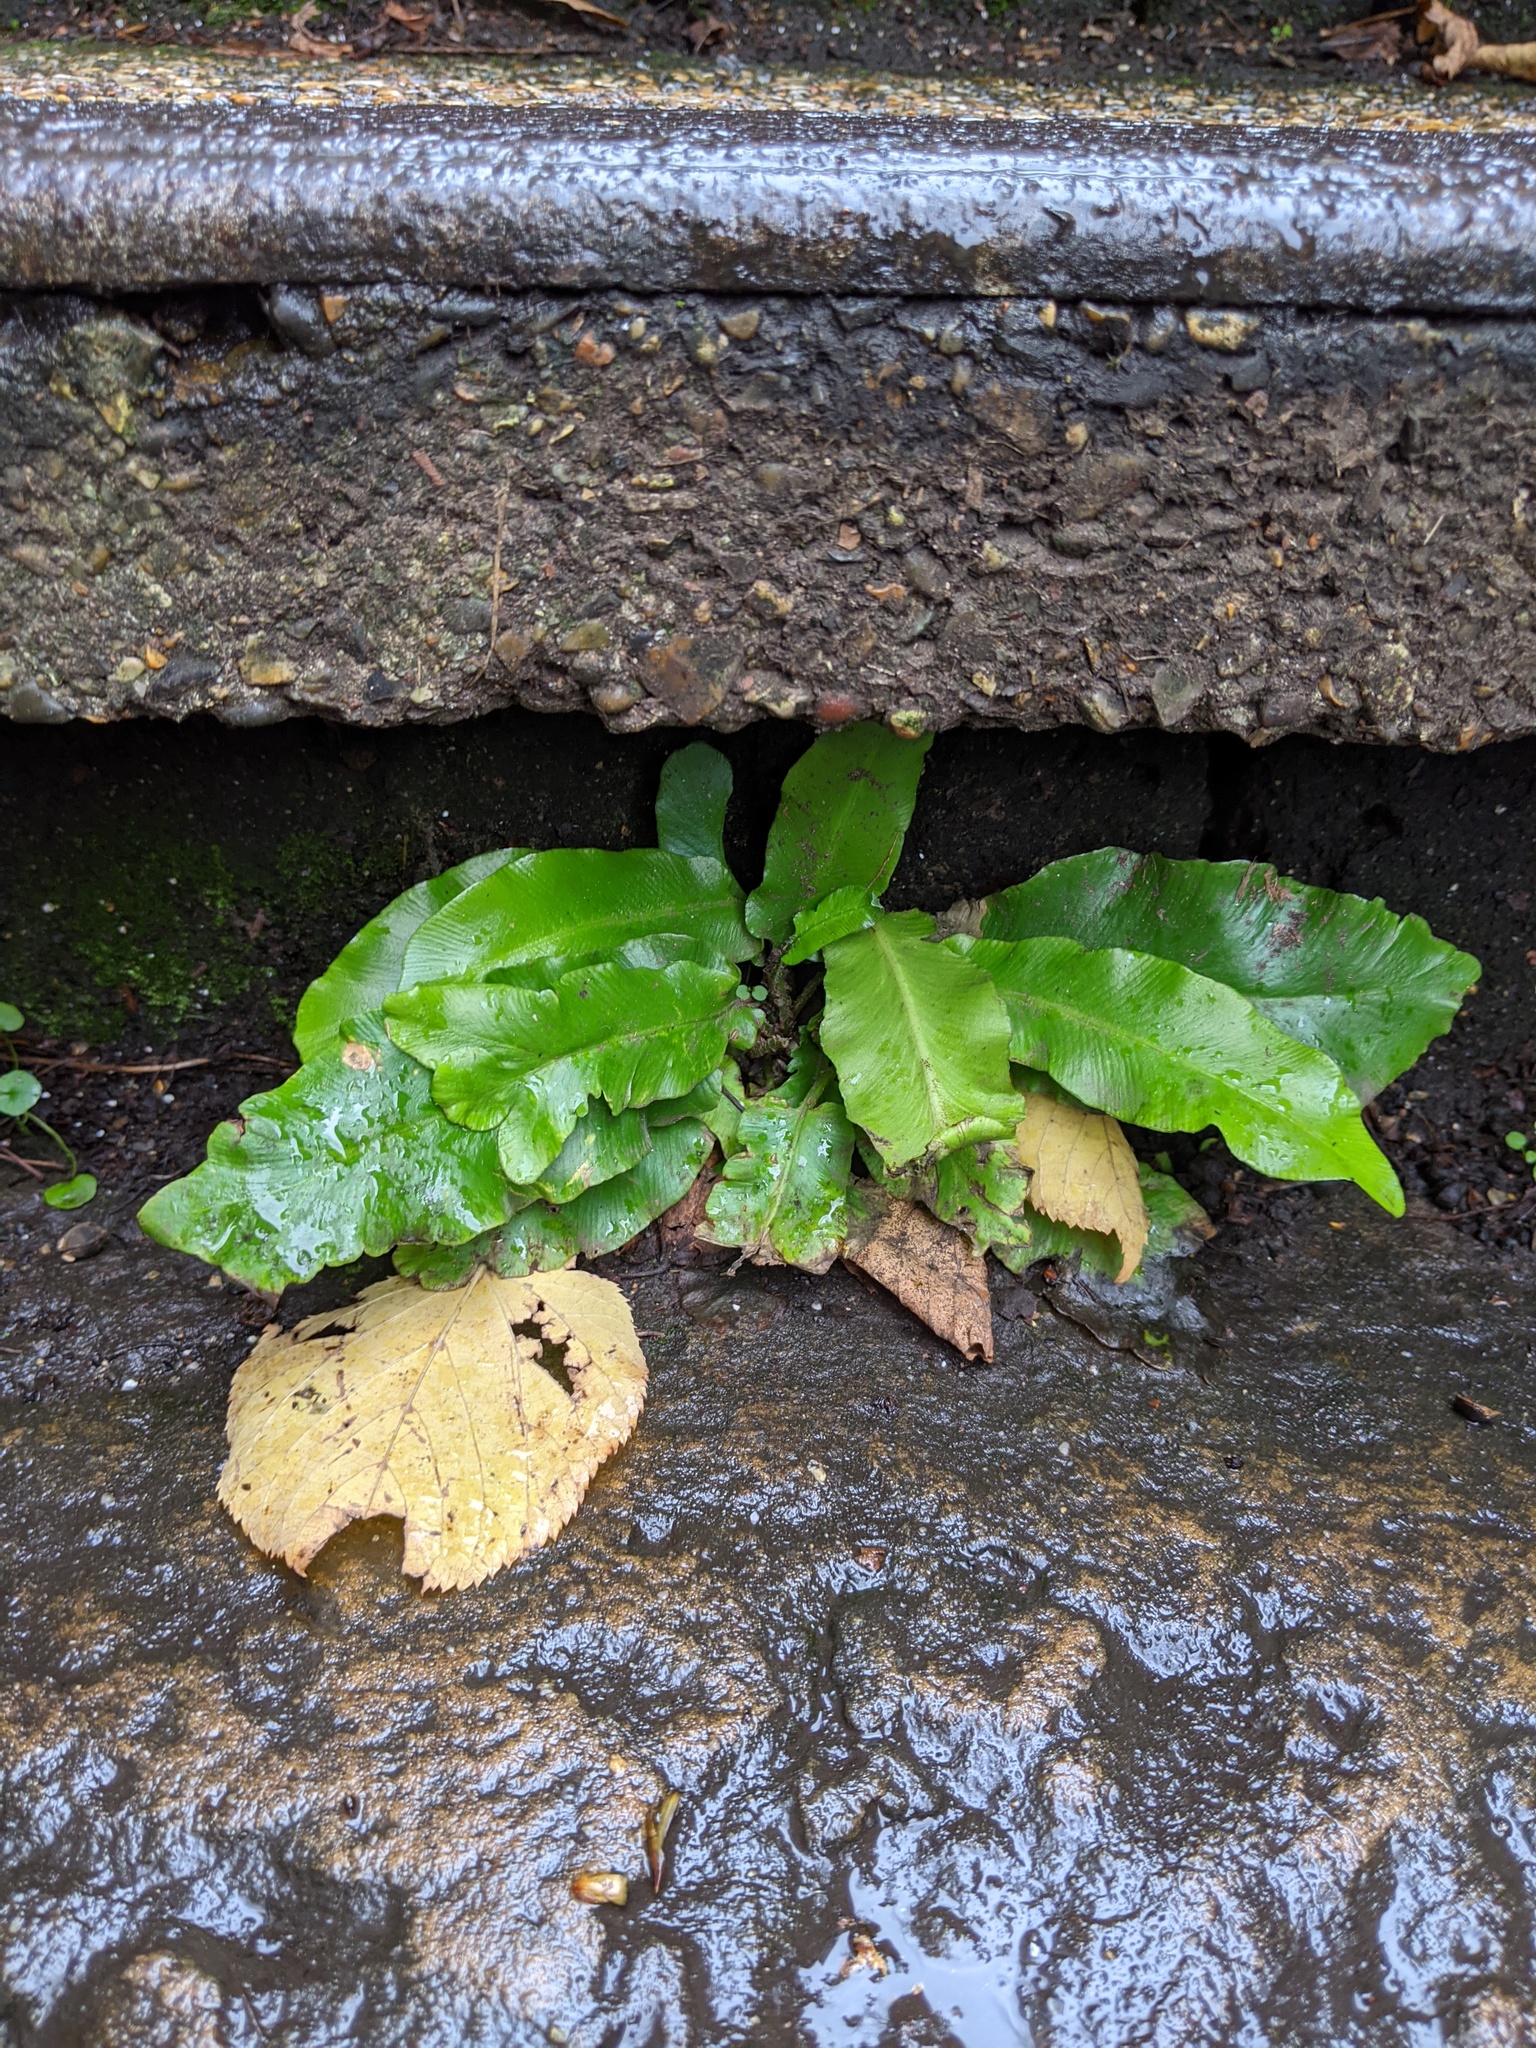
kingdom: Plantae
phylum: Tracheophyta
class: Polypodiopsida
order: Polypodiales
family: Aspleniaceae
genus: Asplenium
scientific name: Asplenium scolopendrium
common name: Hart's-tongue fern
